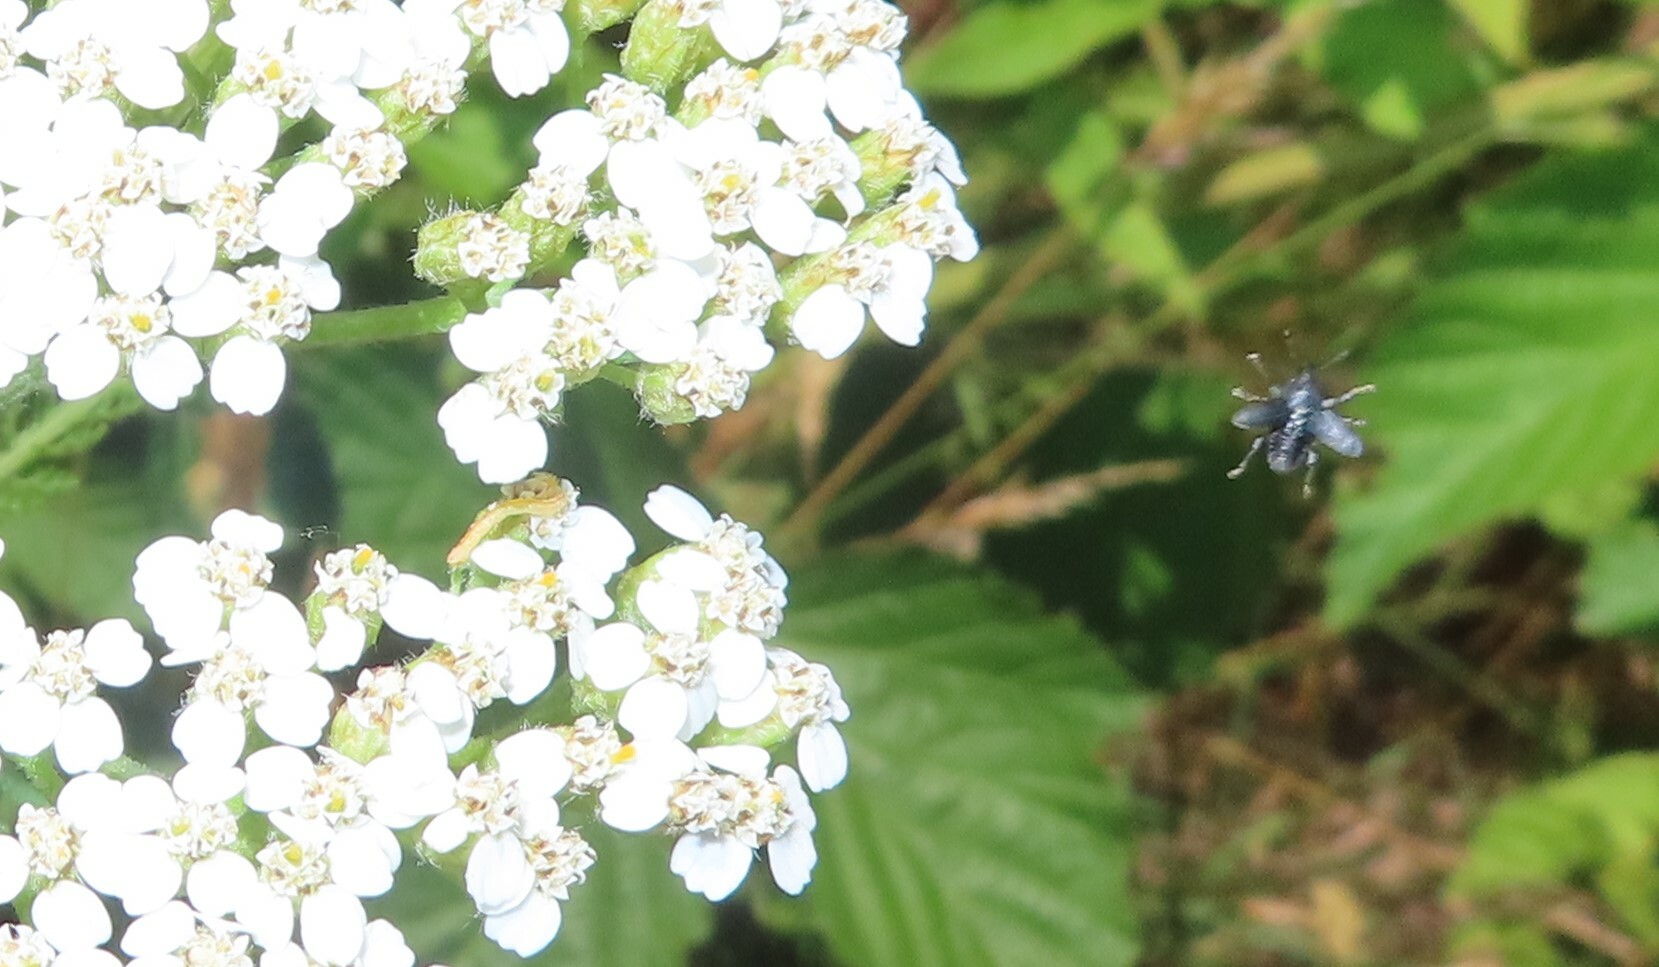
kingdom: Plantae
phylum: Tracheophyta
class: Magnoliopsida
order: Asterales
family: Asteraceae
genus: Achillea
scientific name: Achillea millefolium
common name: Yarrow
